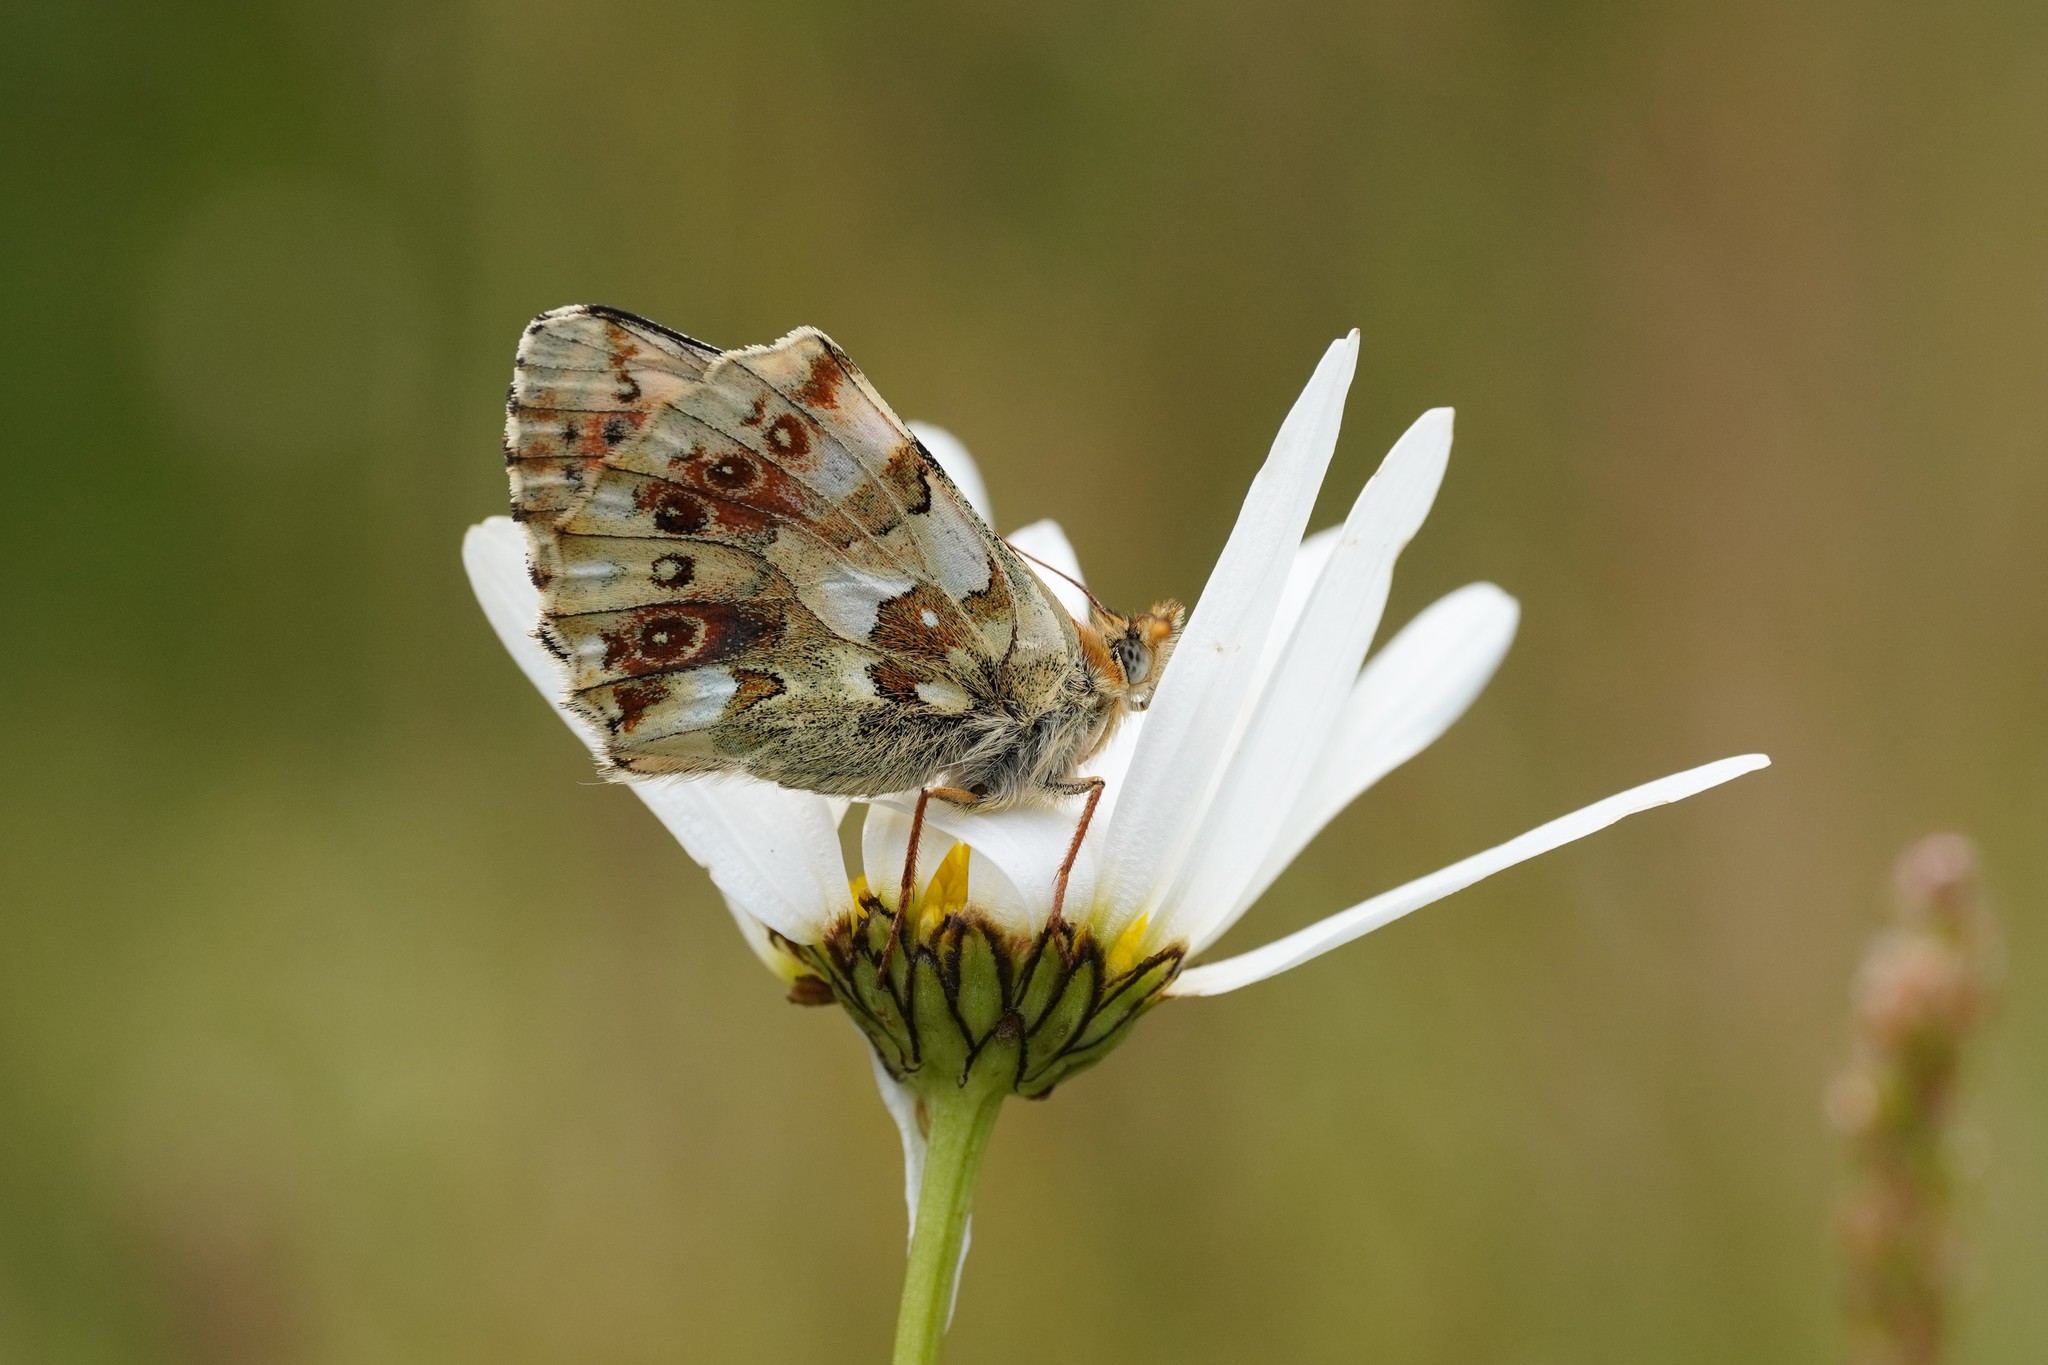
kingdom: Animalia
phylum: Arthropoda
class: Insecta
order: Lepidoptera
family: Nymphalidae
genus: Boloria
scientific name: Boloria graeca
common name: Balkan fritillary
